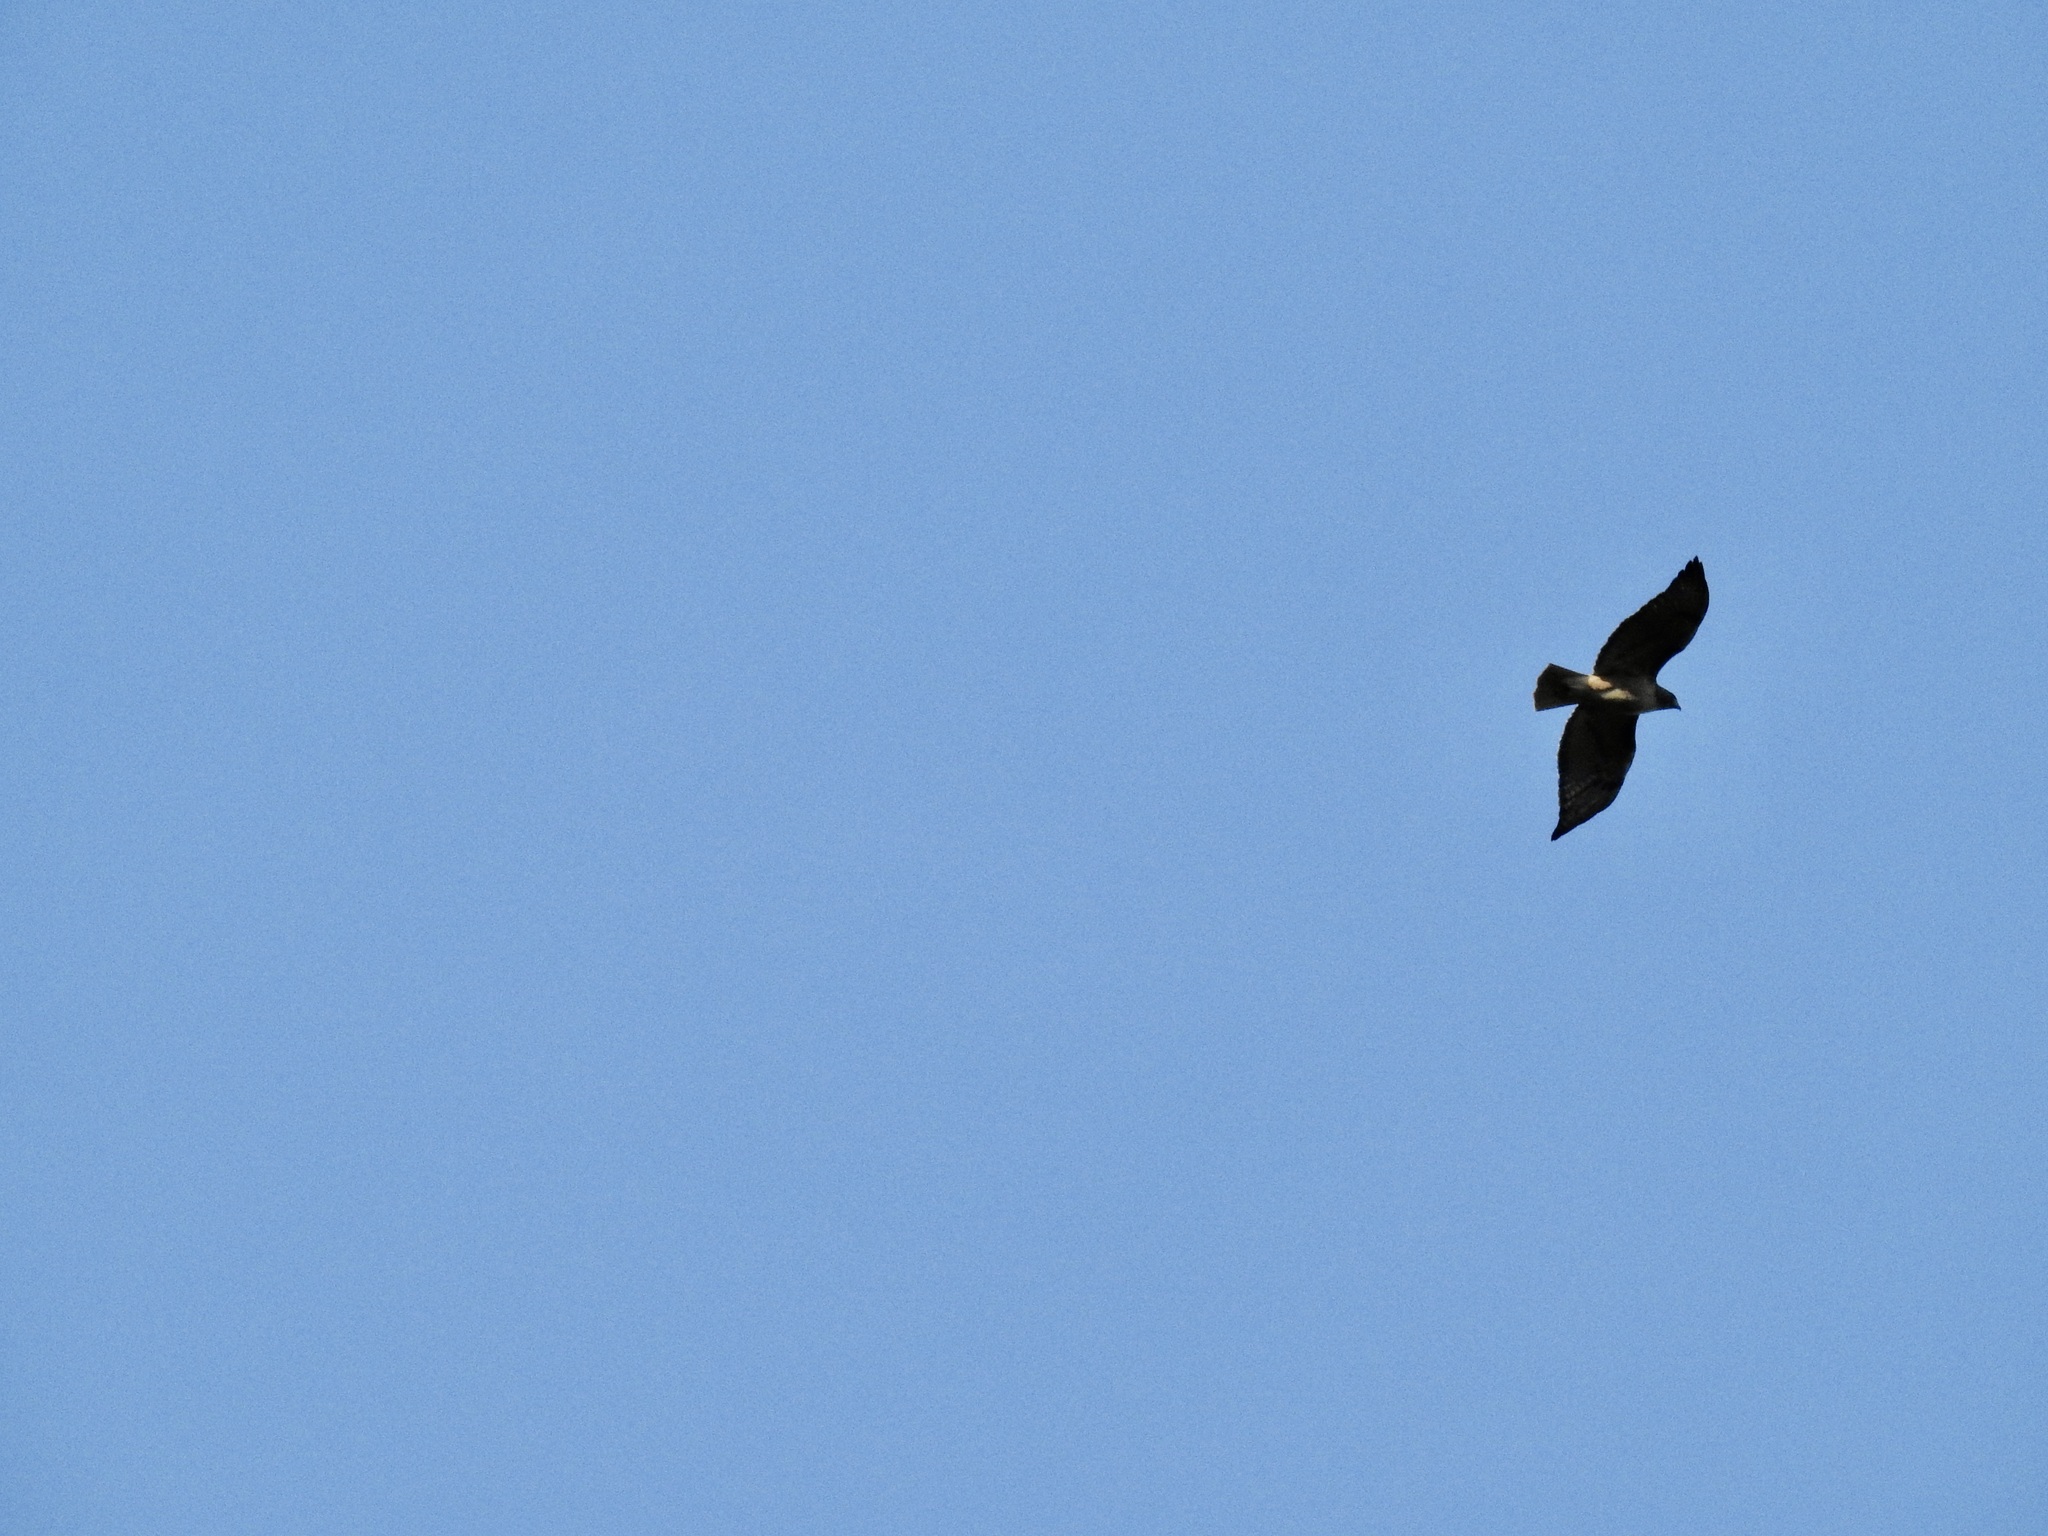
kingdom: Animalia
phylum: Chordata
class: Aves
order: Accipitriformes
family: Accipitridae
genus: Buteo
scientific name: Buteo jamaicensis
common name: Red-tailed hawk
